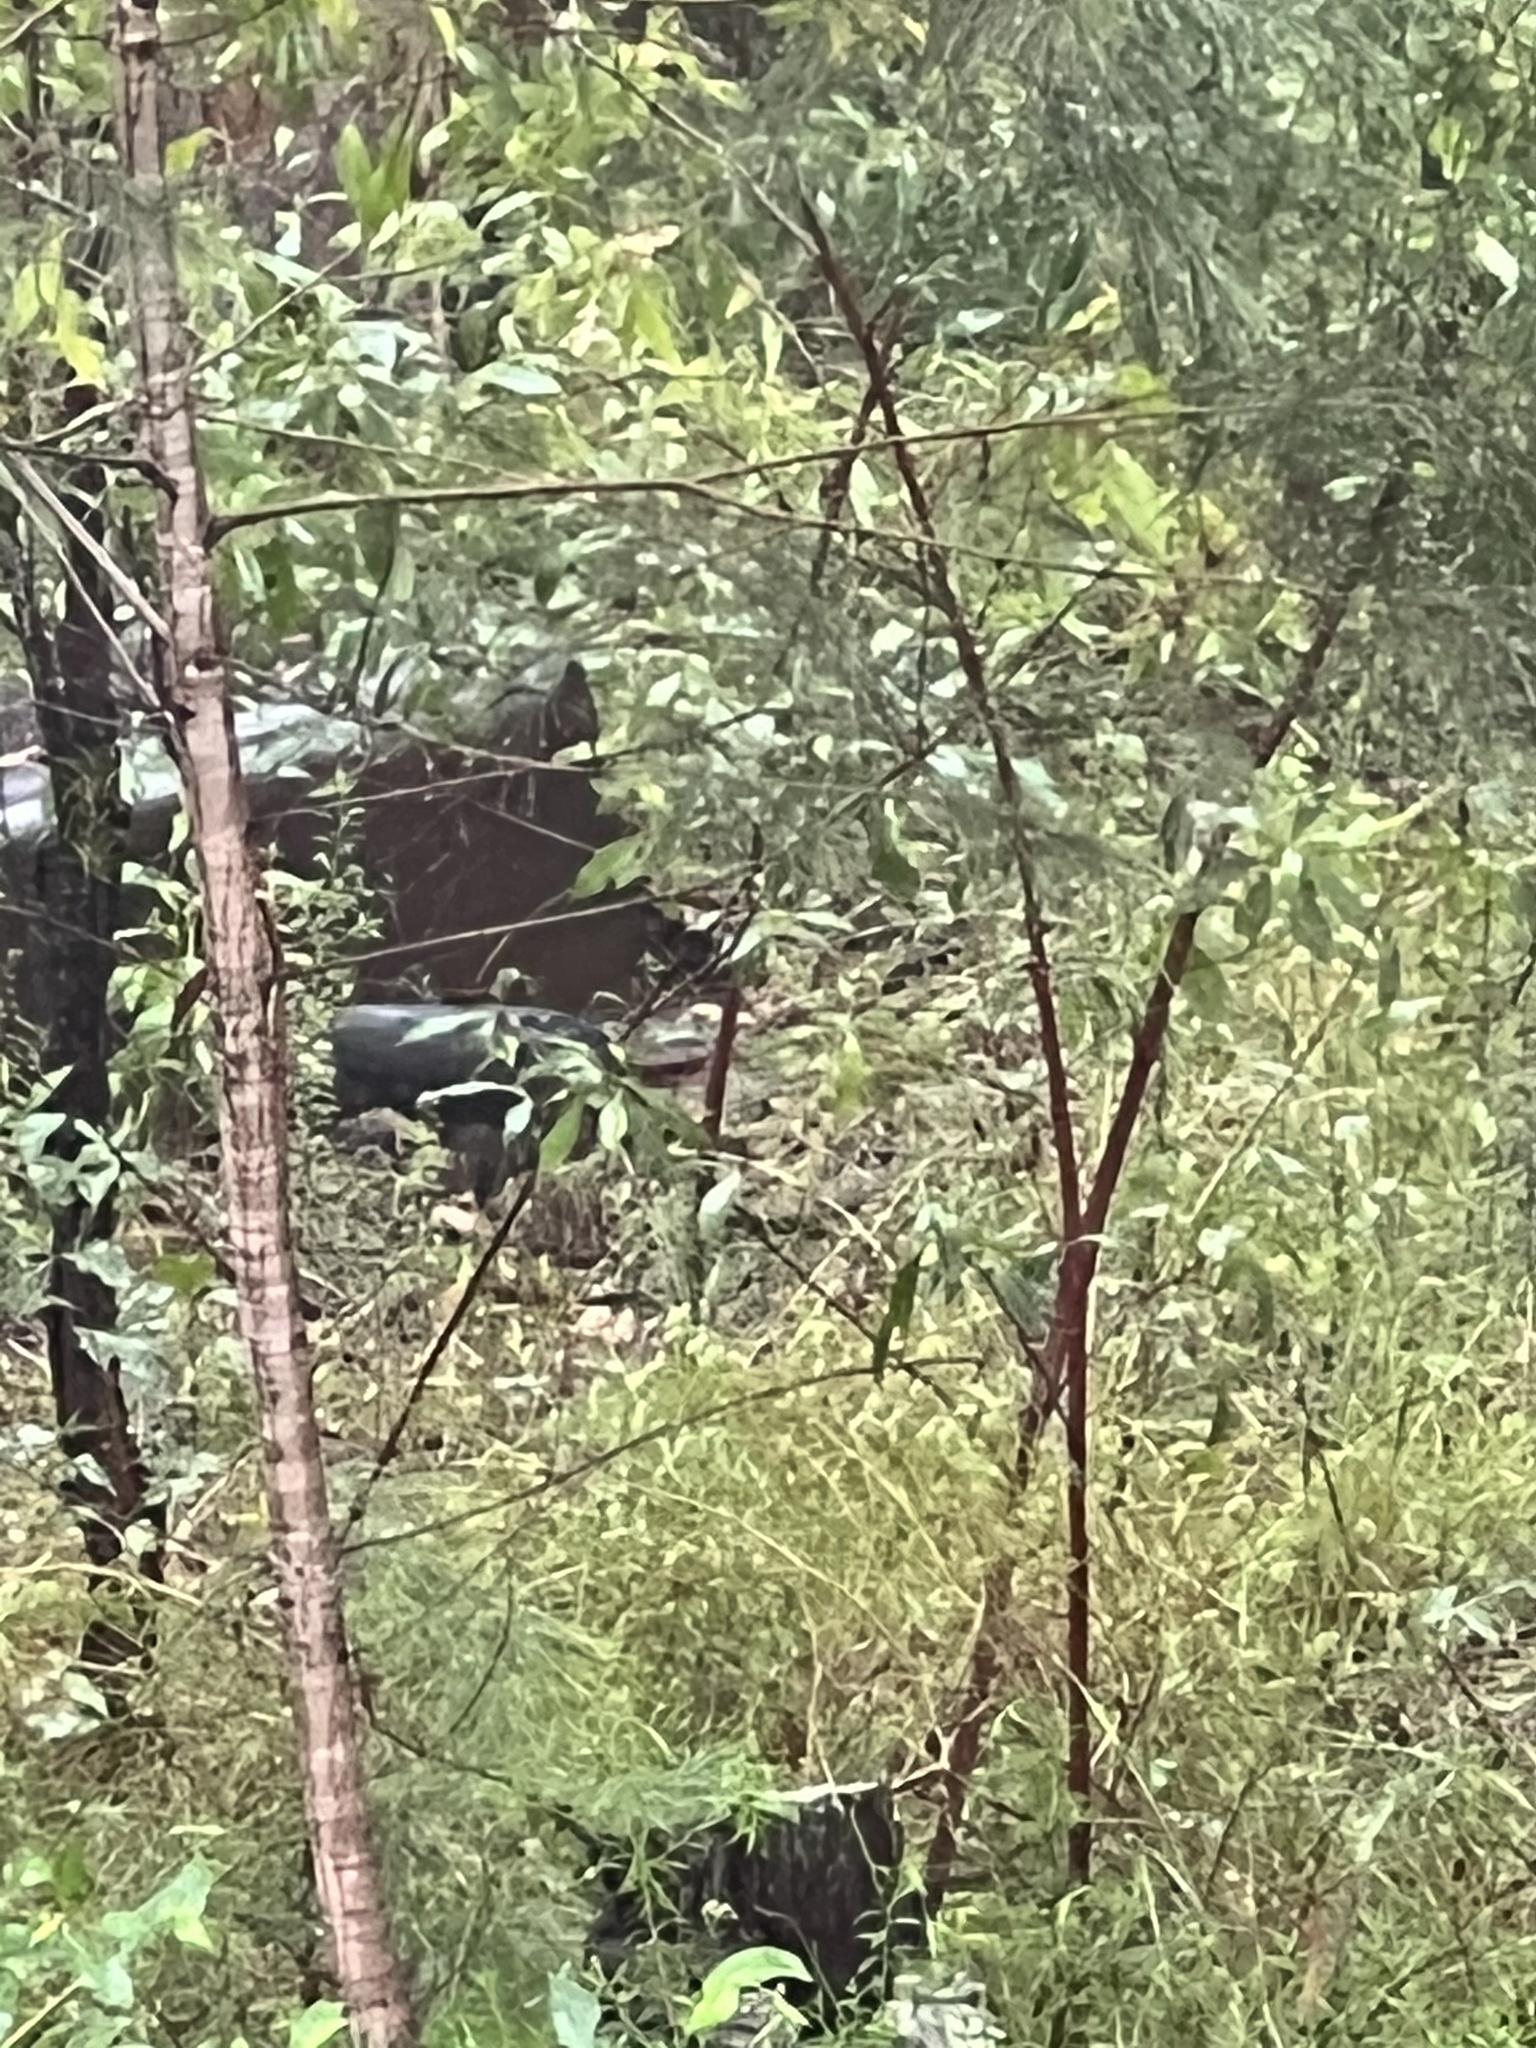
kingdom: Animalia
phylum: Chordata
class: Aves
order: Galliformes
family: Megapodiidae
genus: Alectura
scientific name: Alectura lathami
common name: Australian brushturkey
